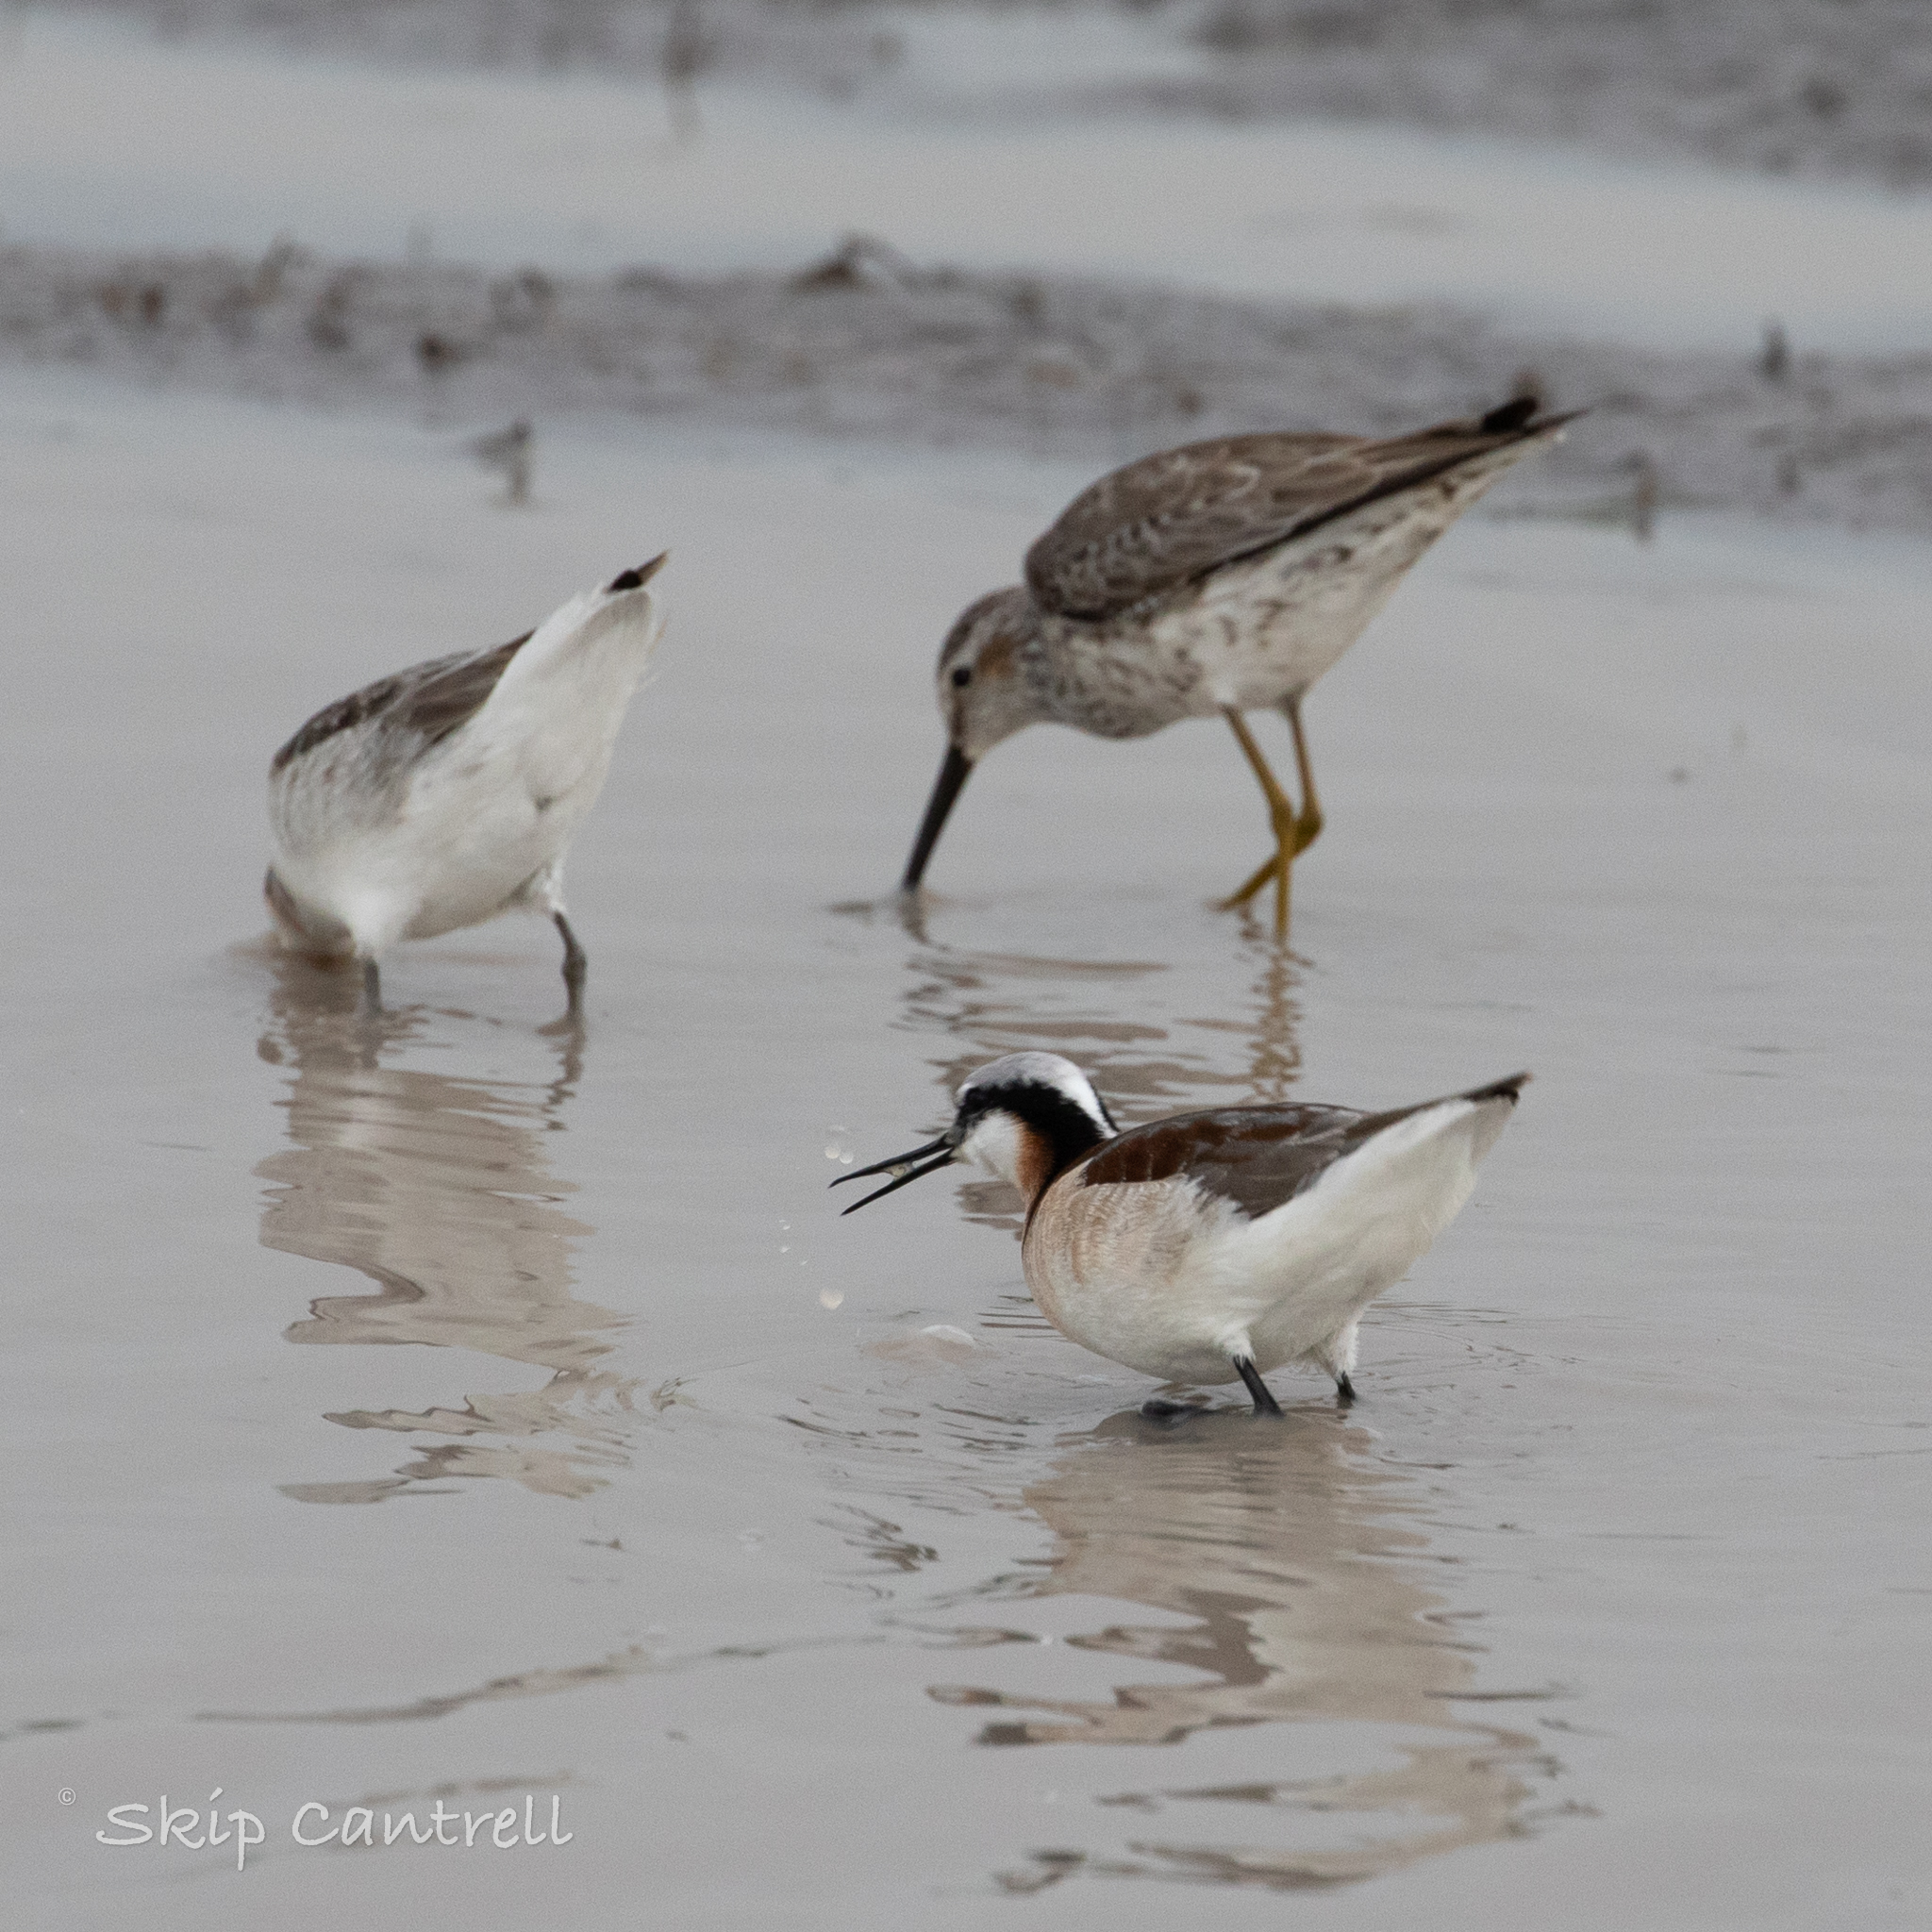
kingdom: Animalia
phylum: Chordata
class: Aves
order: Charadriiformes
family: Scolopacidae
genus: Phalaropus
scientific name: Phalaropus tricolor
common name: Wilson's phalarope
